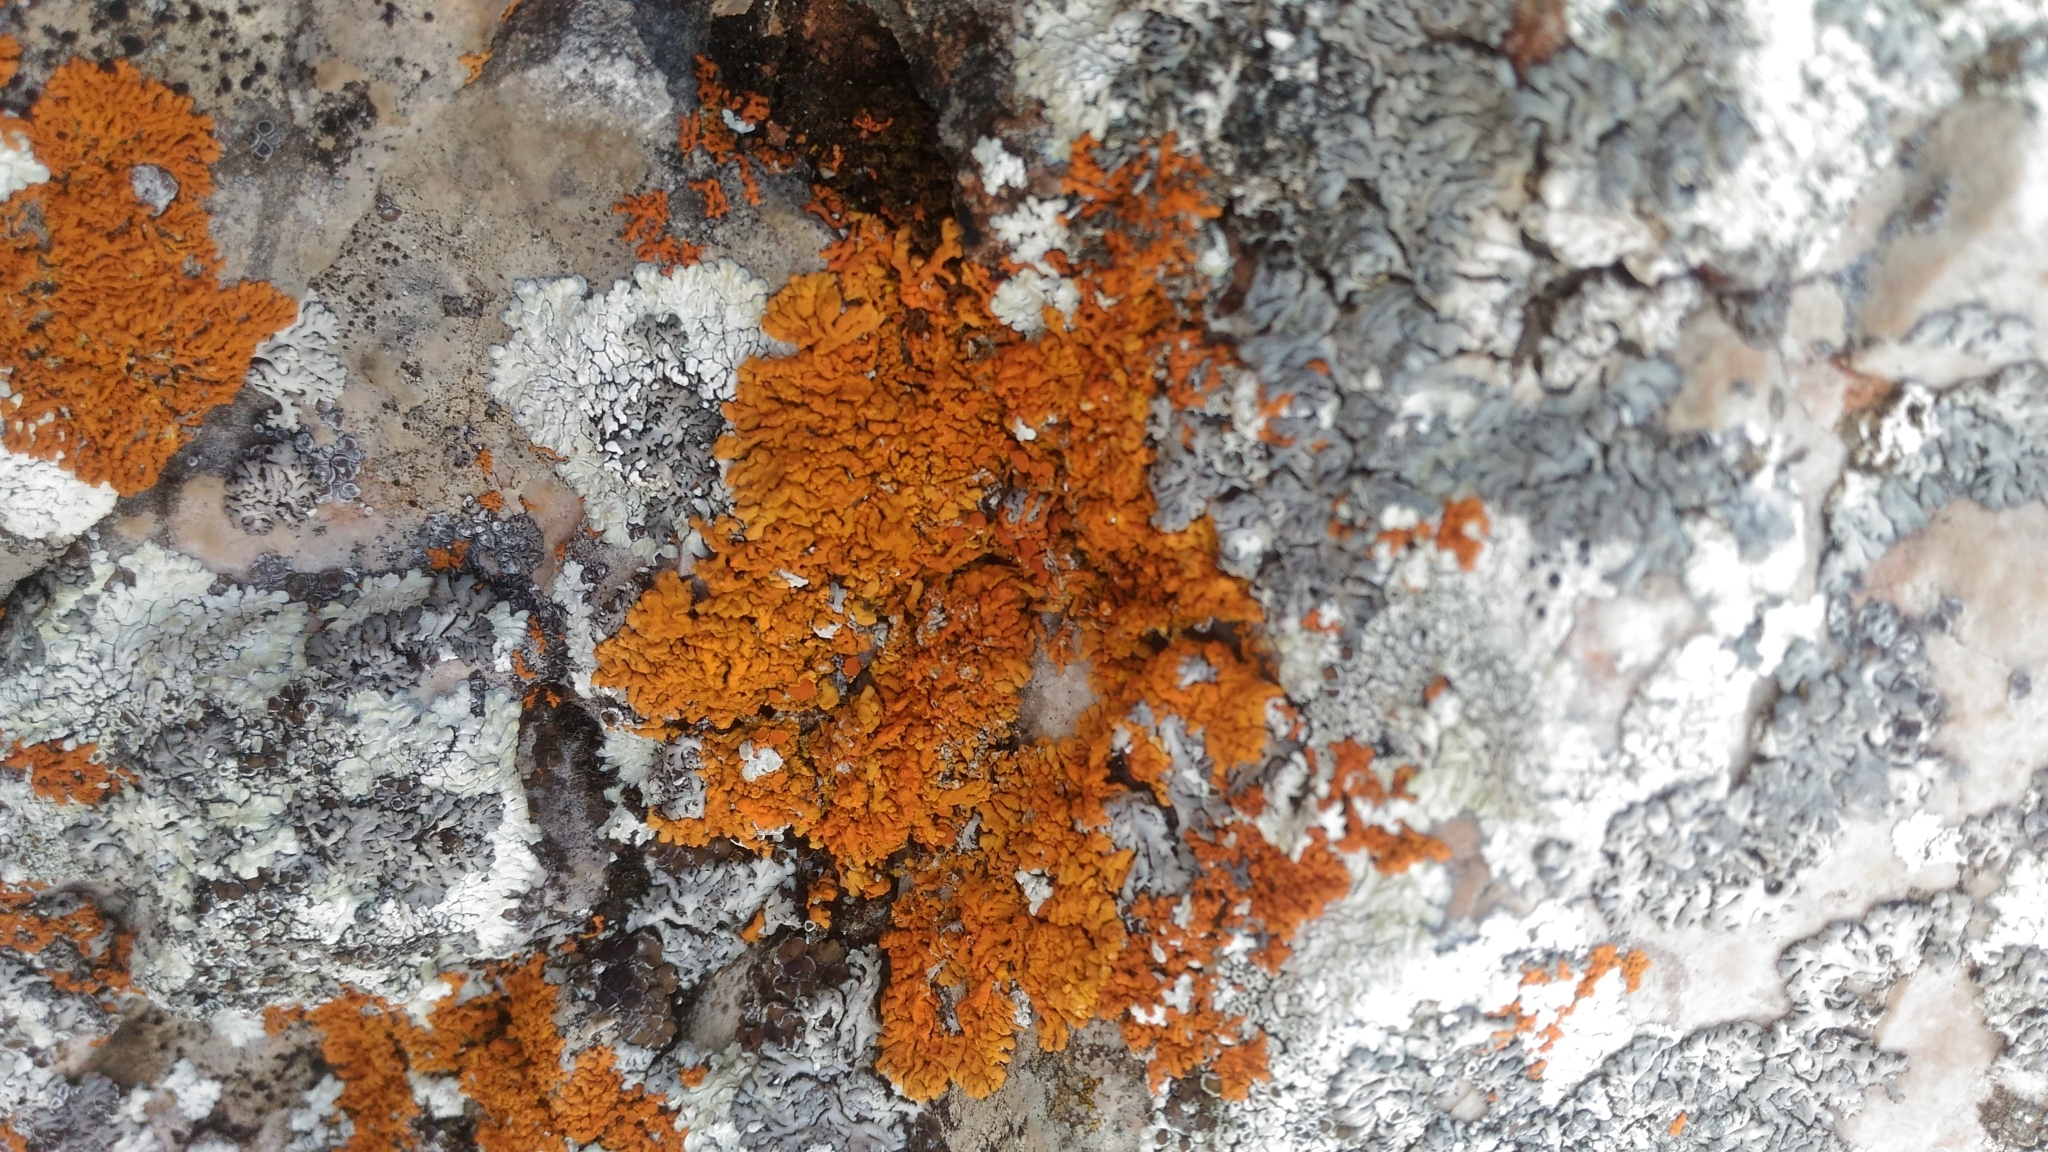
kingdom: Fungi
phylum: Ascomycota
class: Lecanoromycetes
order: Teloschistales
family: Teloschistaceae
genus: Xanthoria
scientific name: Xanthoria elegans
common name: Elegant sunburst lichen
